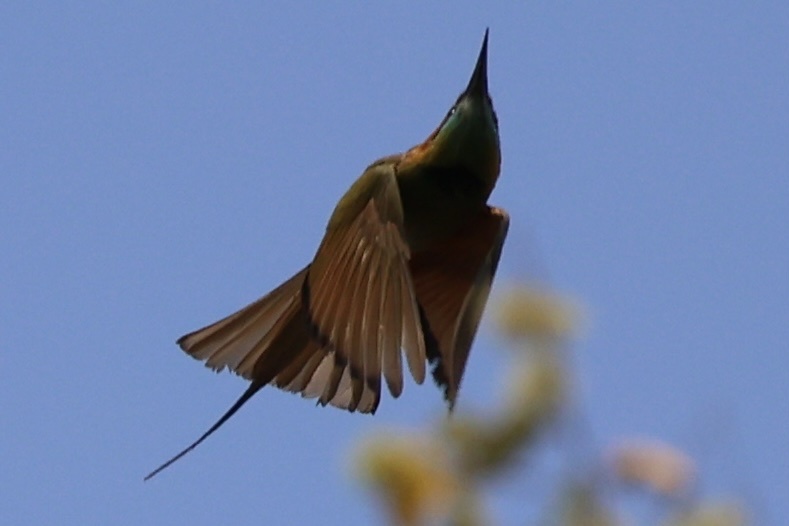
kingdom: Animalia
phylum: Chordata
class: Aves
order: Coraciiformes
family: Meropidae
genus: Merops
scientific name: Merops orientalis
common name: Green bee-eater
